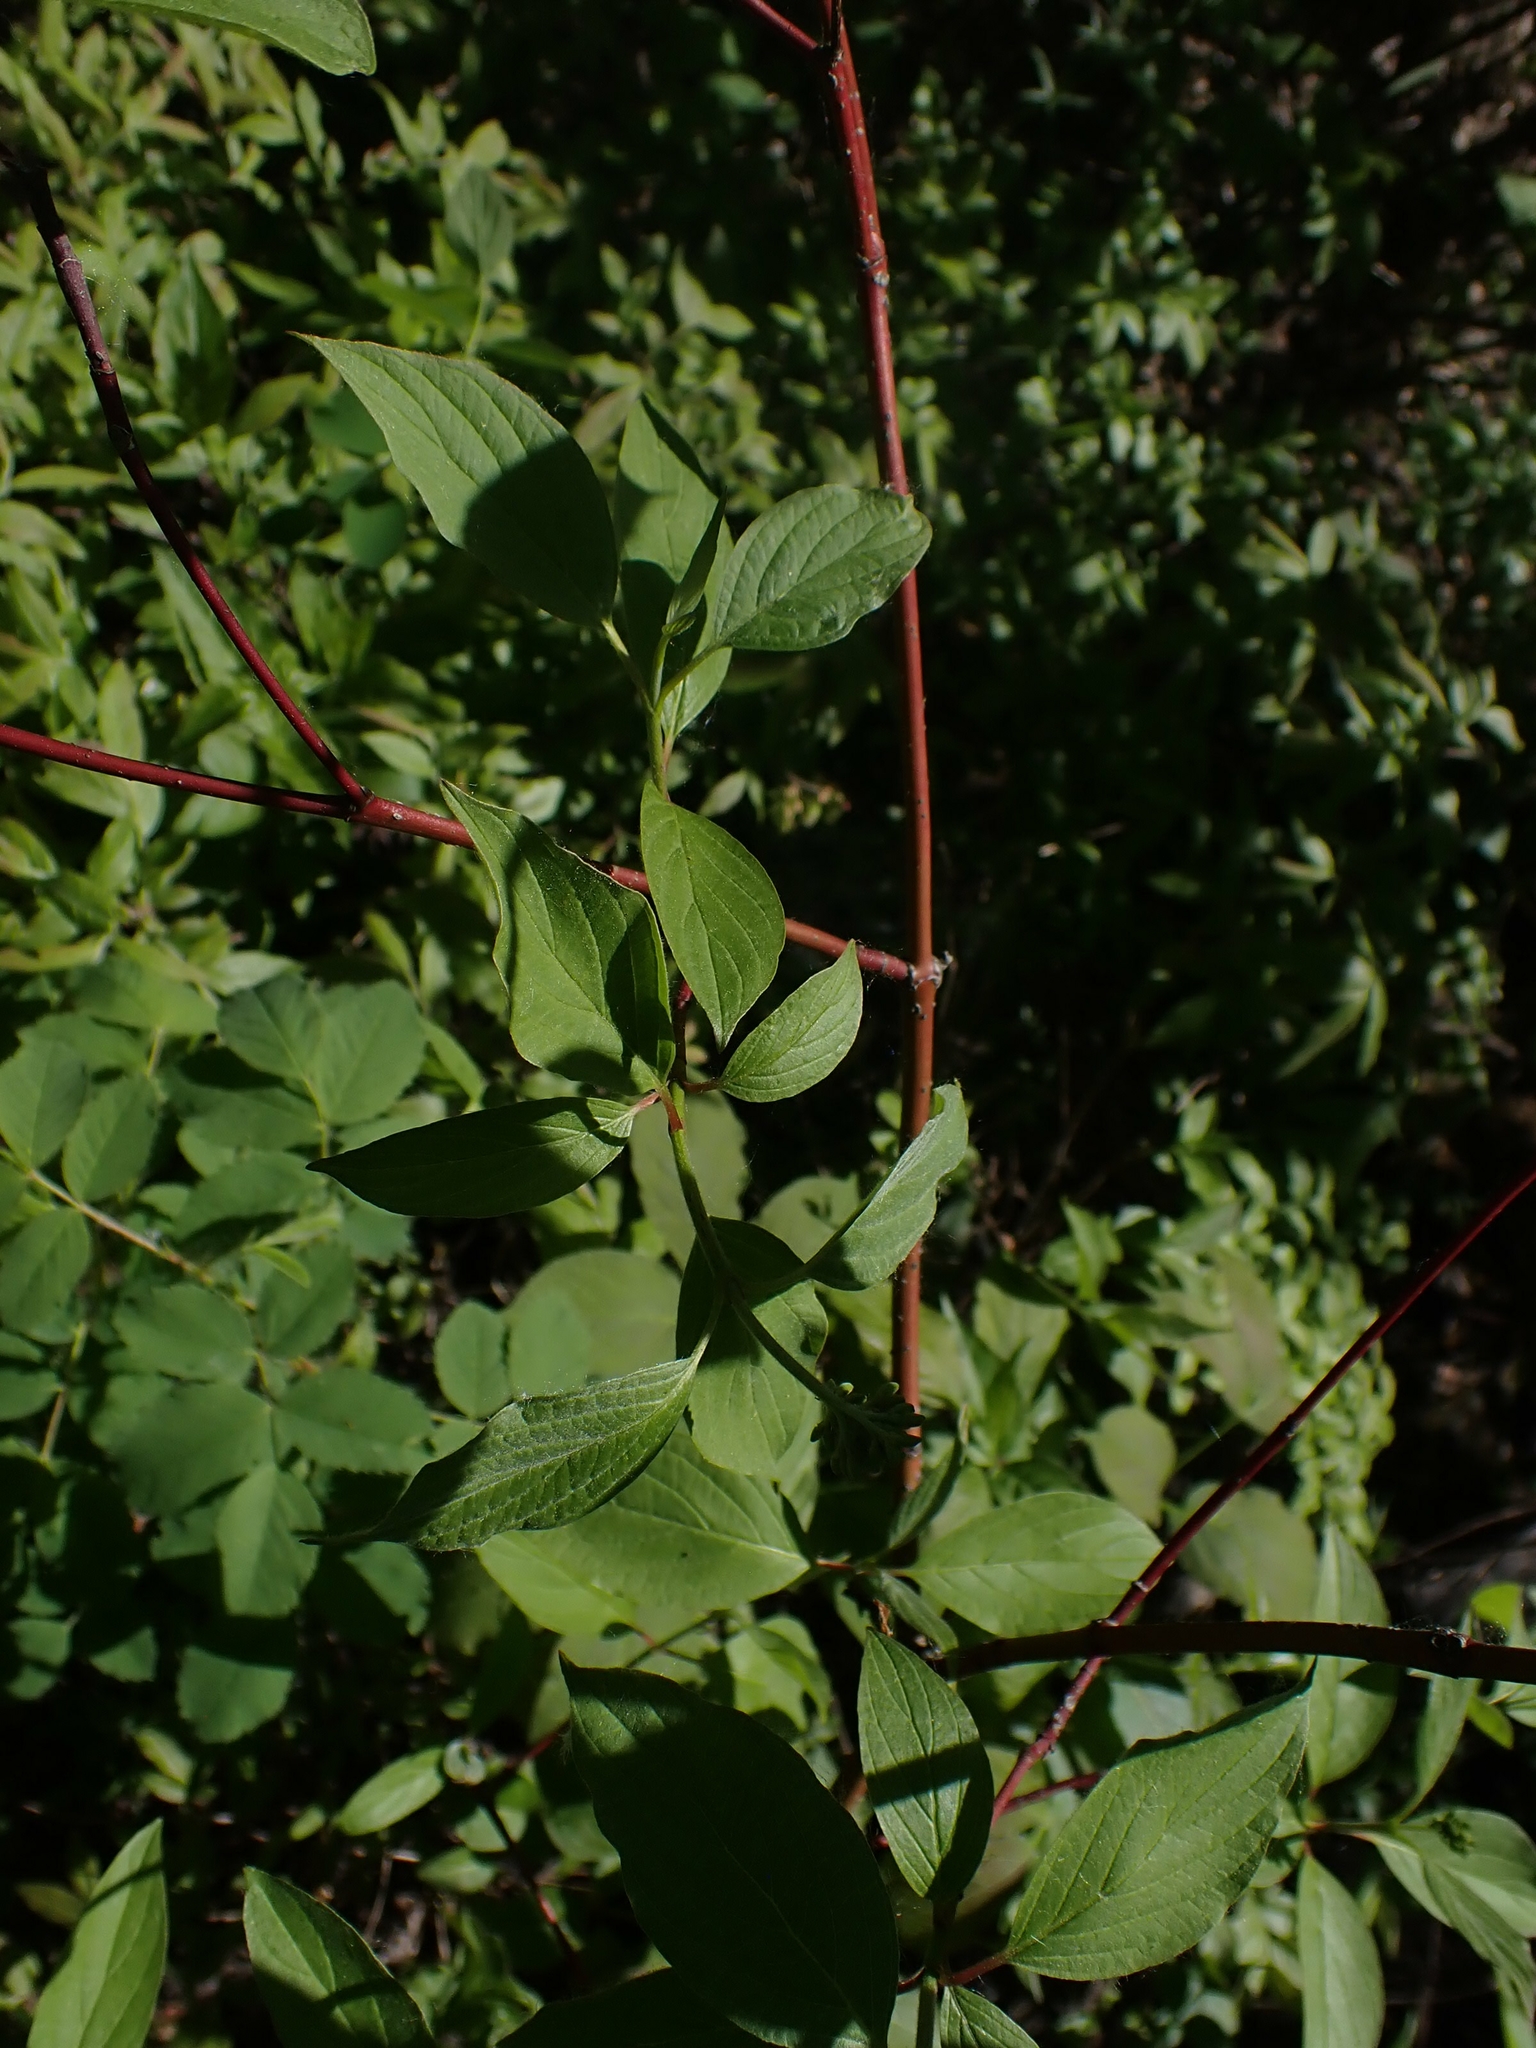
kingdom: Plantae
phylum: Tracheophyta
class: Magnoliopsida
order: Cornales
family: Cornaceae
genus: Cornus
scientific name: Cornus sericea
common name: Red-osier dogwood
